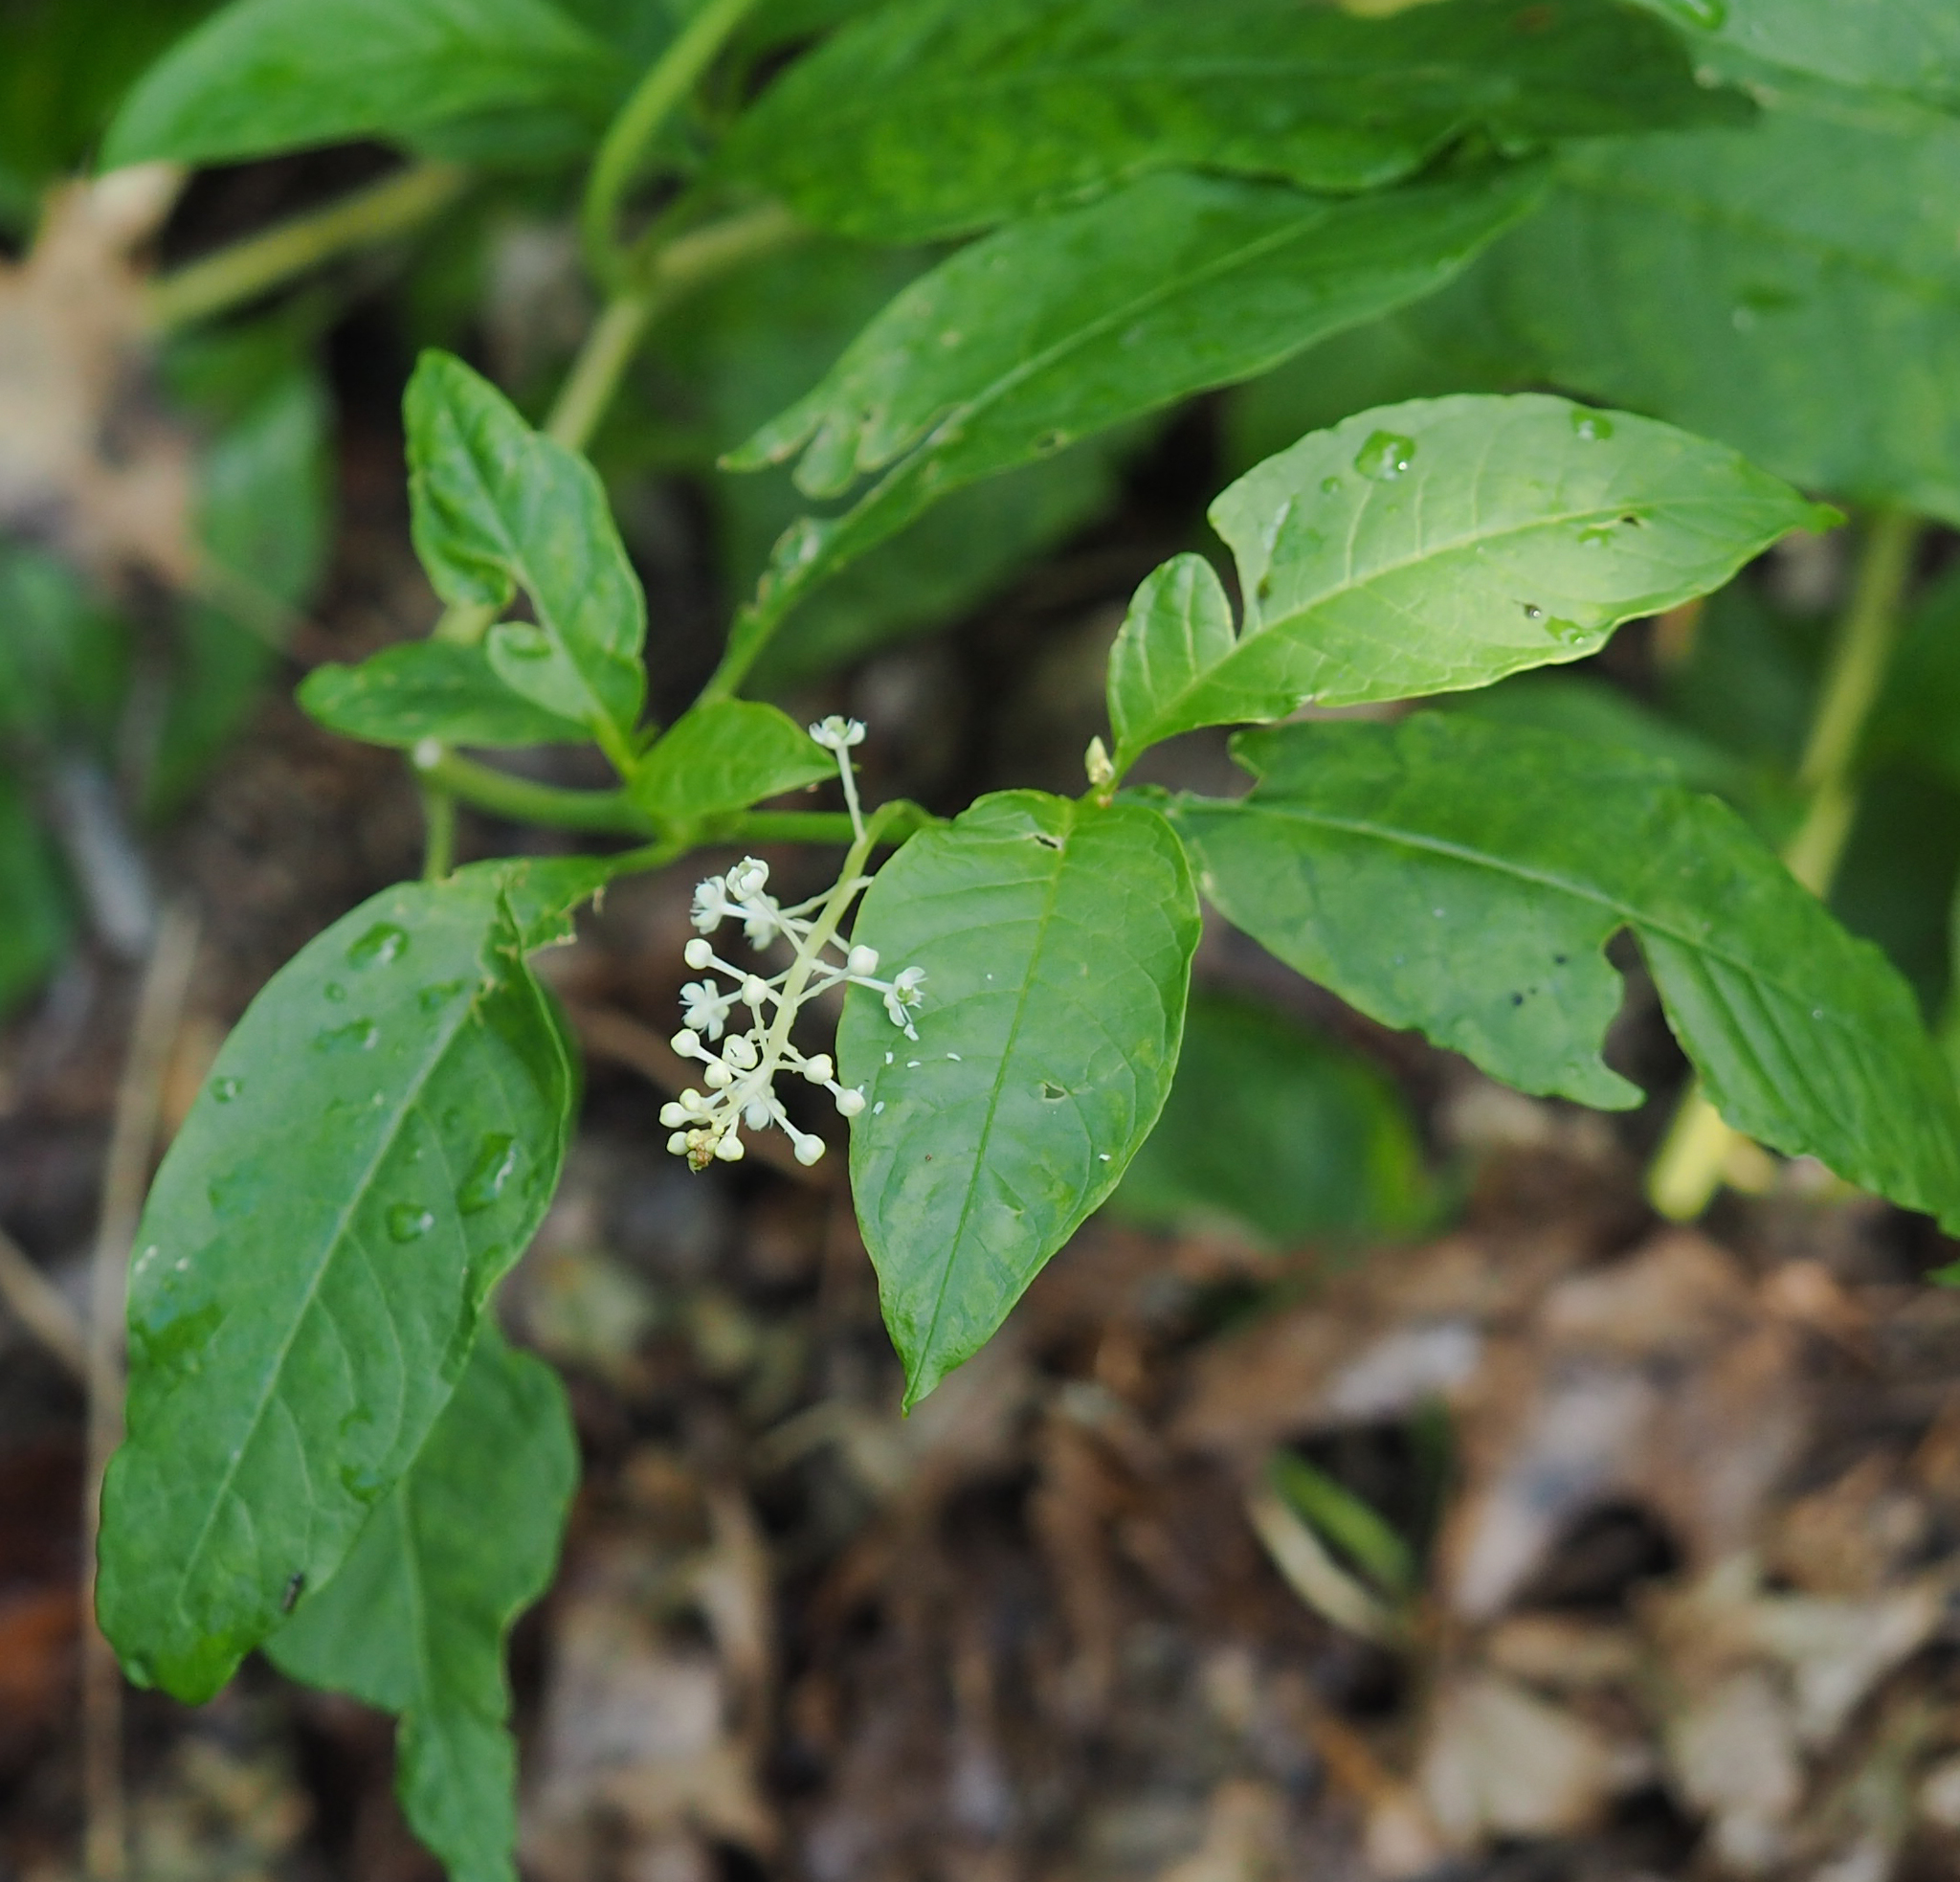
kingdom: Plantae
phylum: Tracheophyta
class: Magnoliopsida
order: Caryophyllales
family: Phytolaccaceae
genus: Phytolacca
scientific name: Phytolacca americana
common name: American pokeweed
